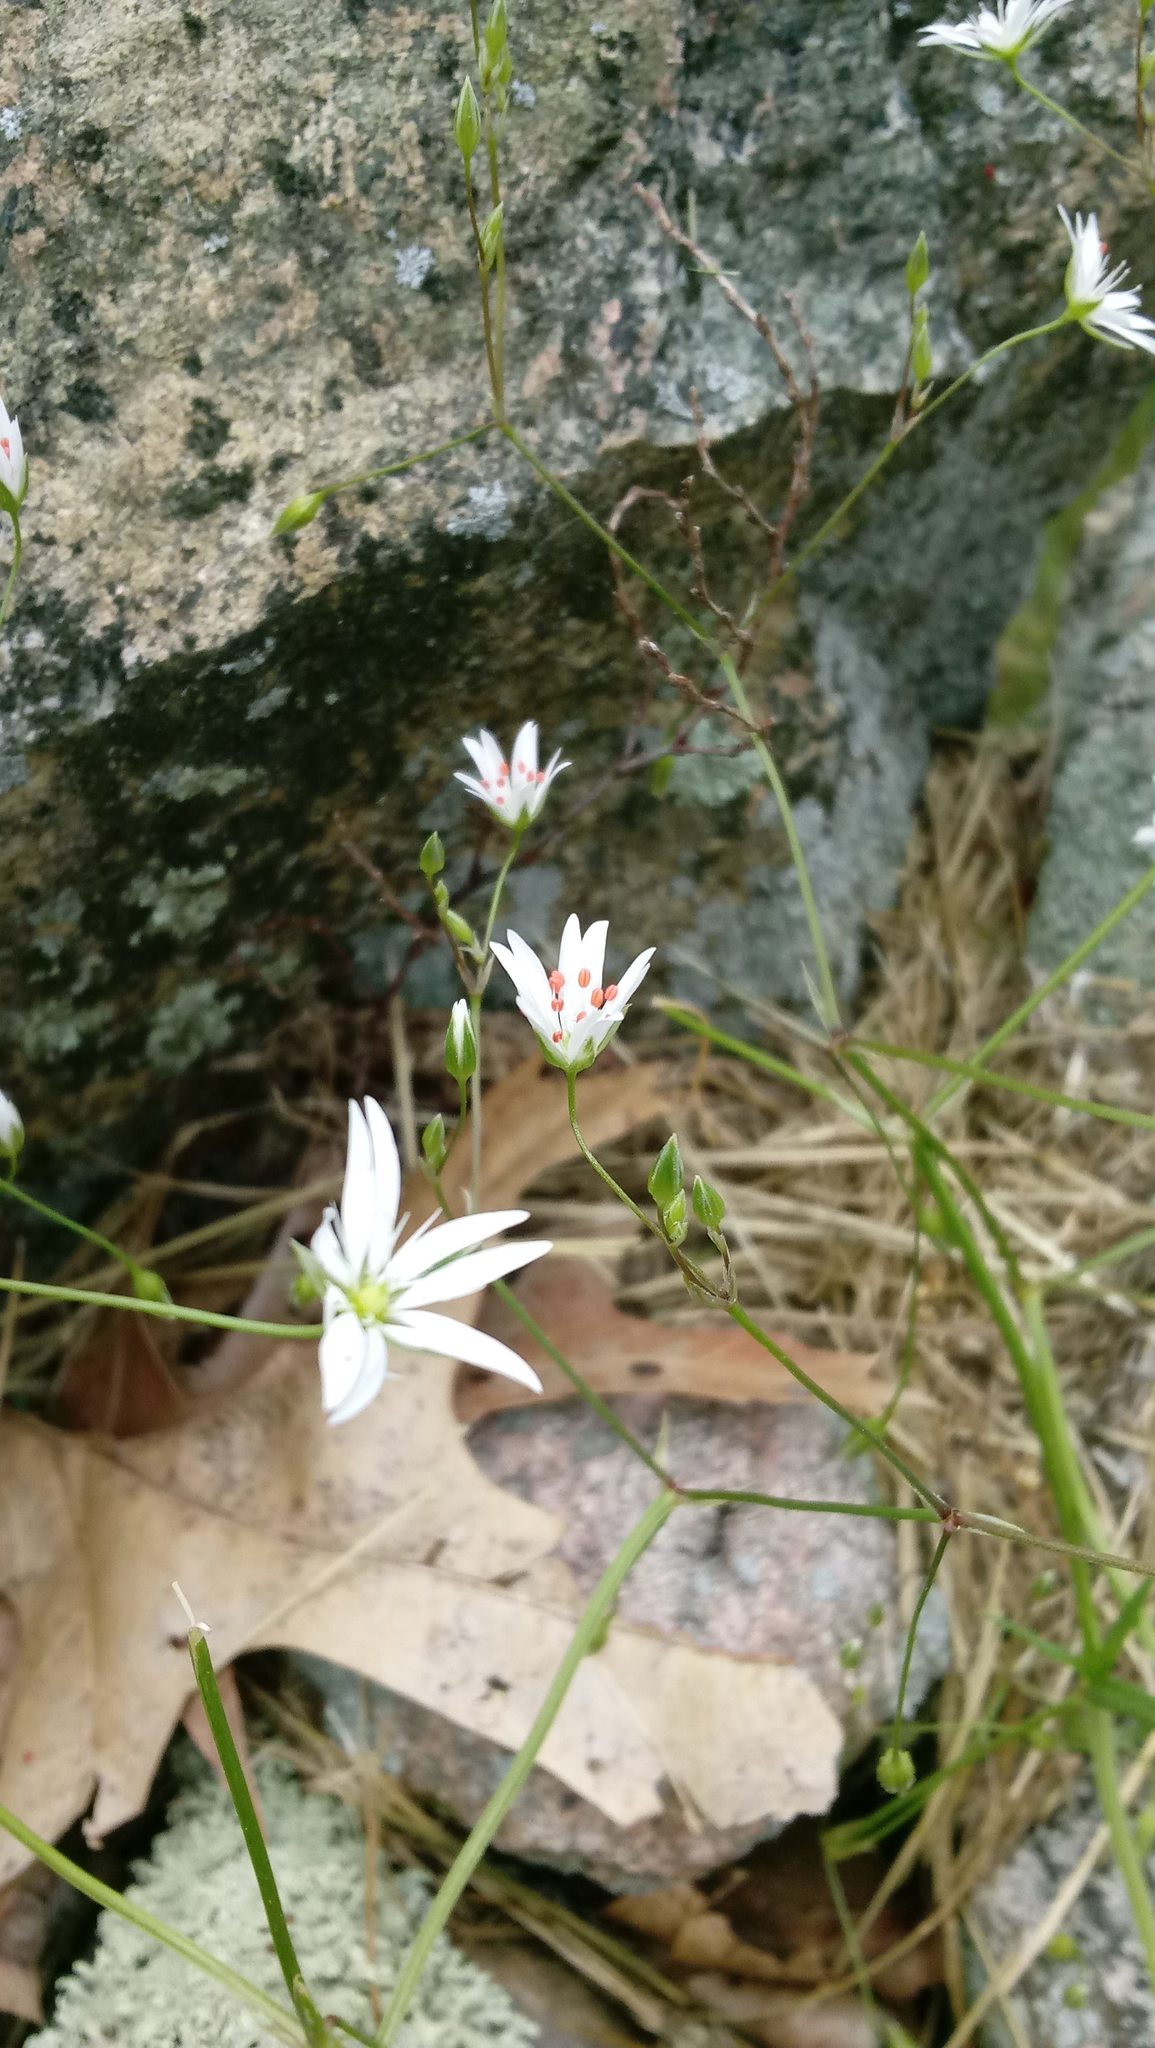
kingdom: Plantae
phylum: Tracheophyta
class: Magnoliopsida
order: Caryophyllales
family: Caryophyllaceae
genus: Stellaria
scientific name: Stellaria graminea
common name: Grass-like starwort
